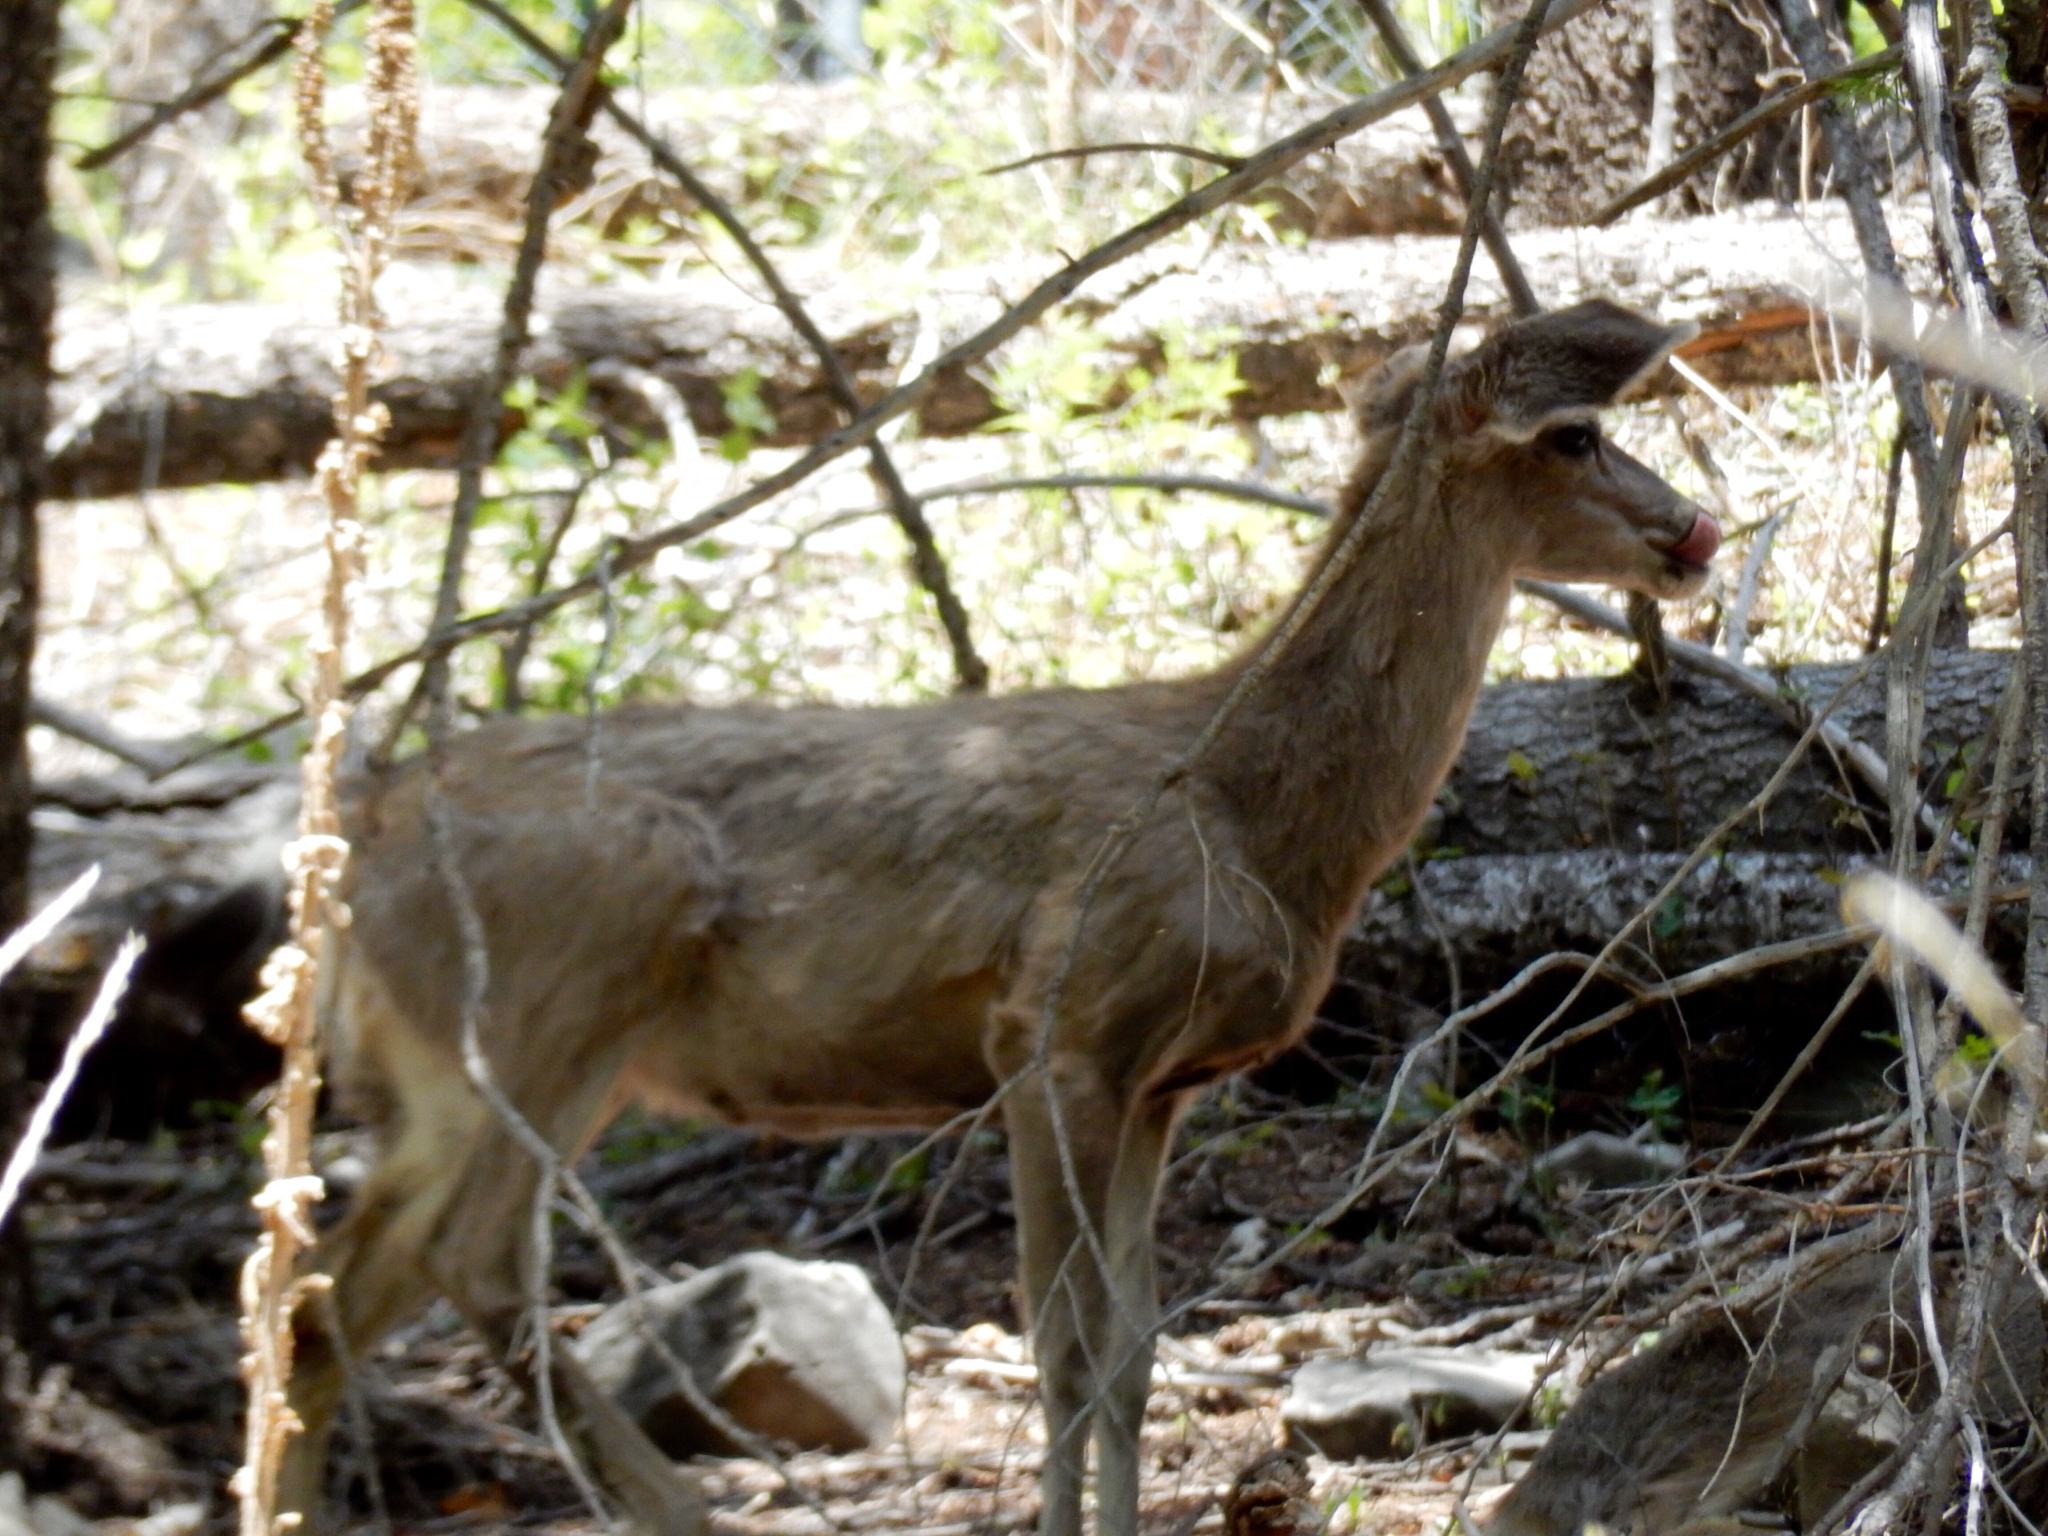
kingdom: Animalia
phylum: Chordata
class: Mammalia
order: Artiodactyla
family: Cervidae
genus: Odocoileus
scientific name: Odocoileus hemionus
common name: Mule deer
